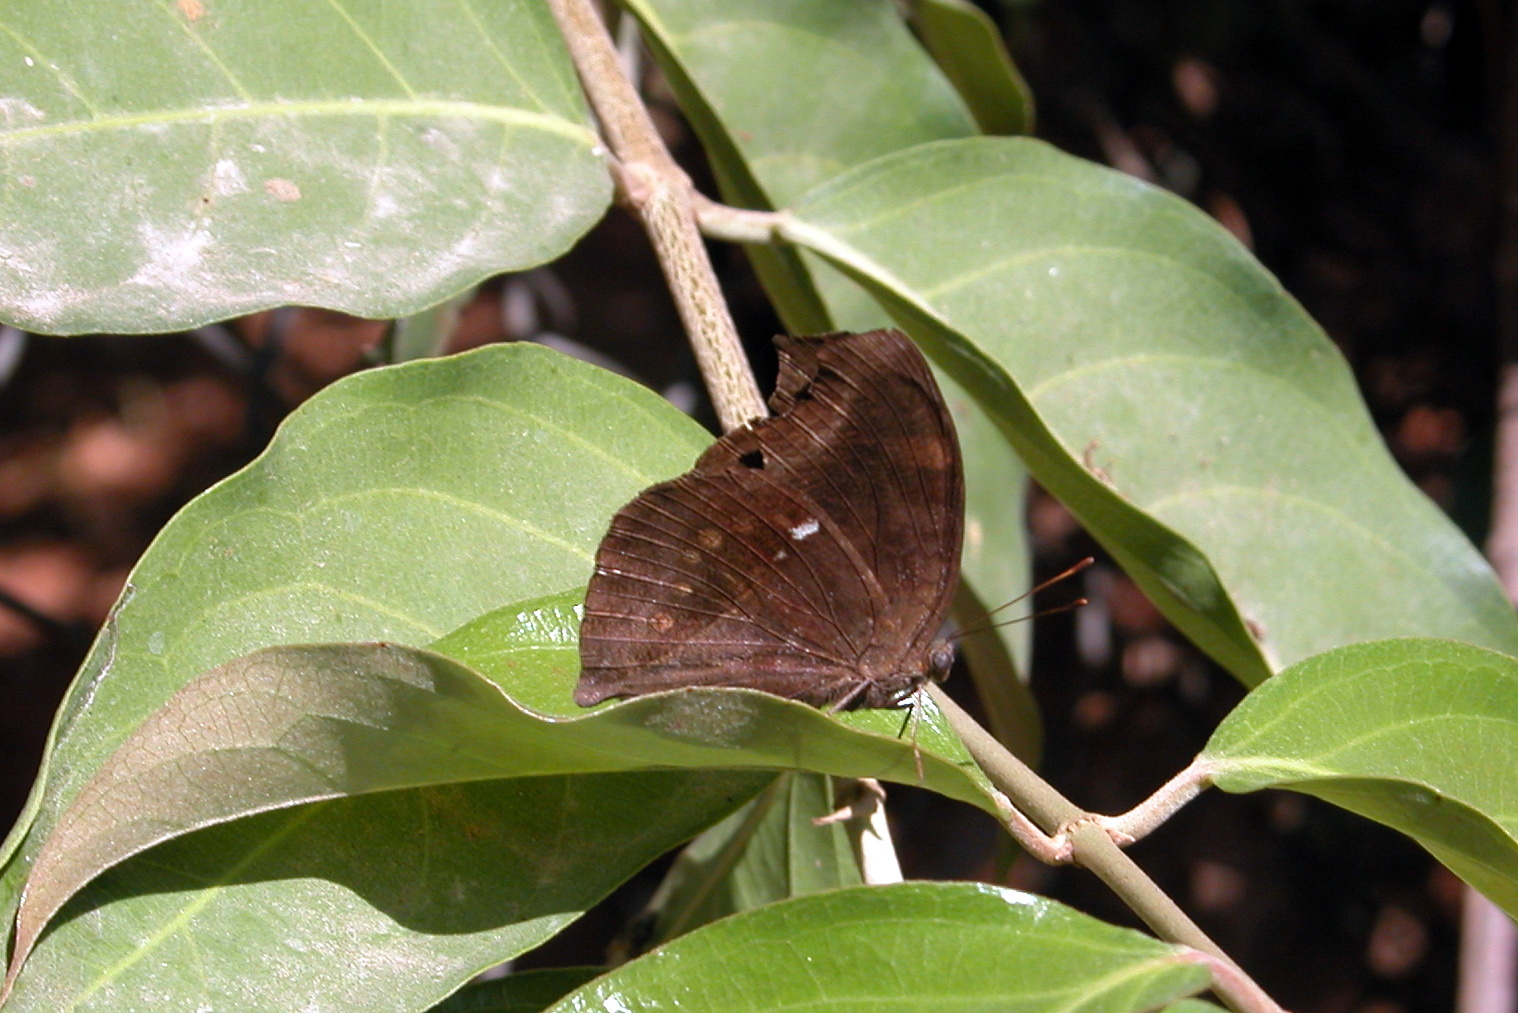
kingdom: Animalia
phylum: Arthropoda
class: Insecta
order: Lepidoptera
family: Nymphalidae
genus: Junonia
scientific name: Junonia iphita
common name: Chocolate pansy
